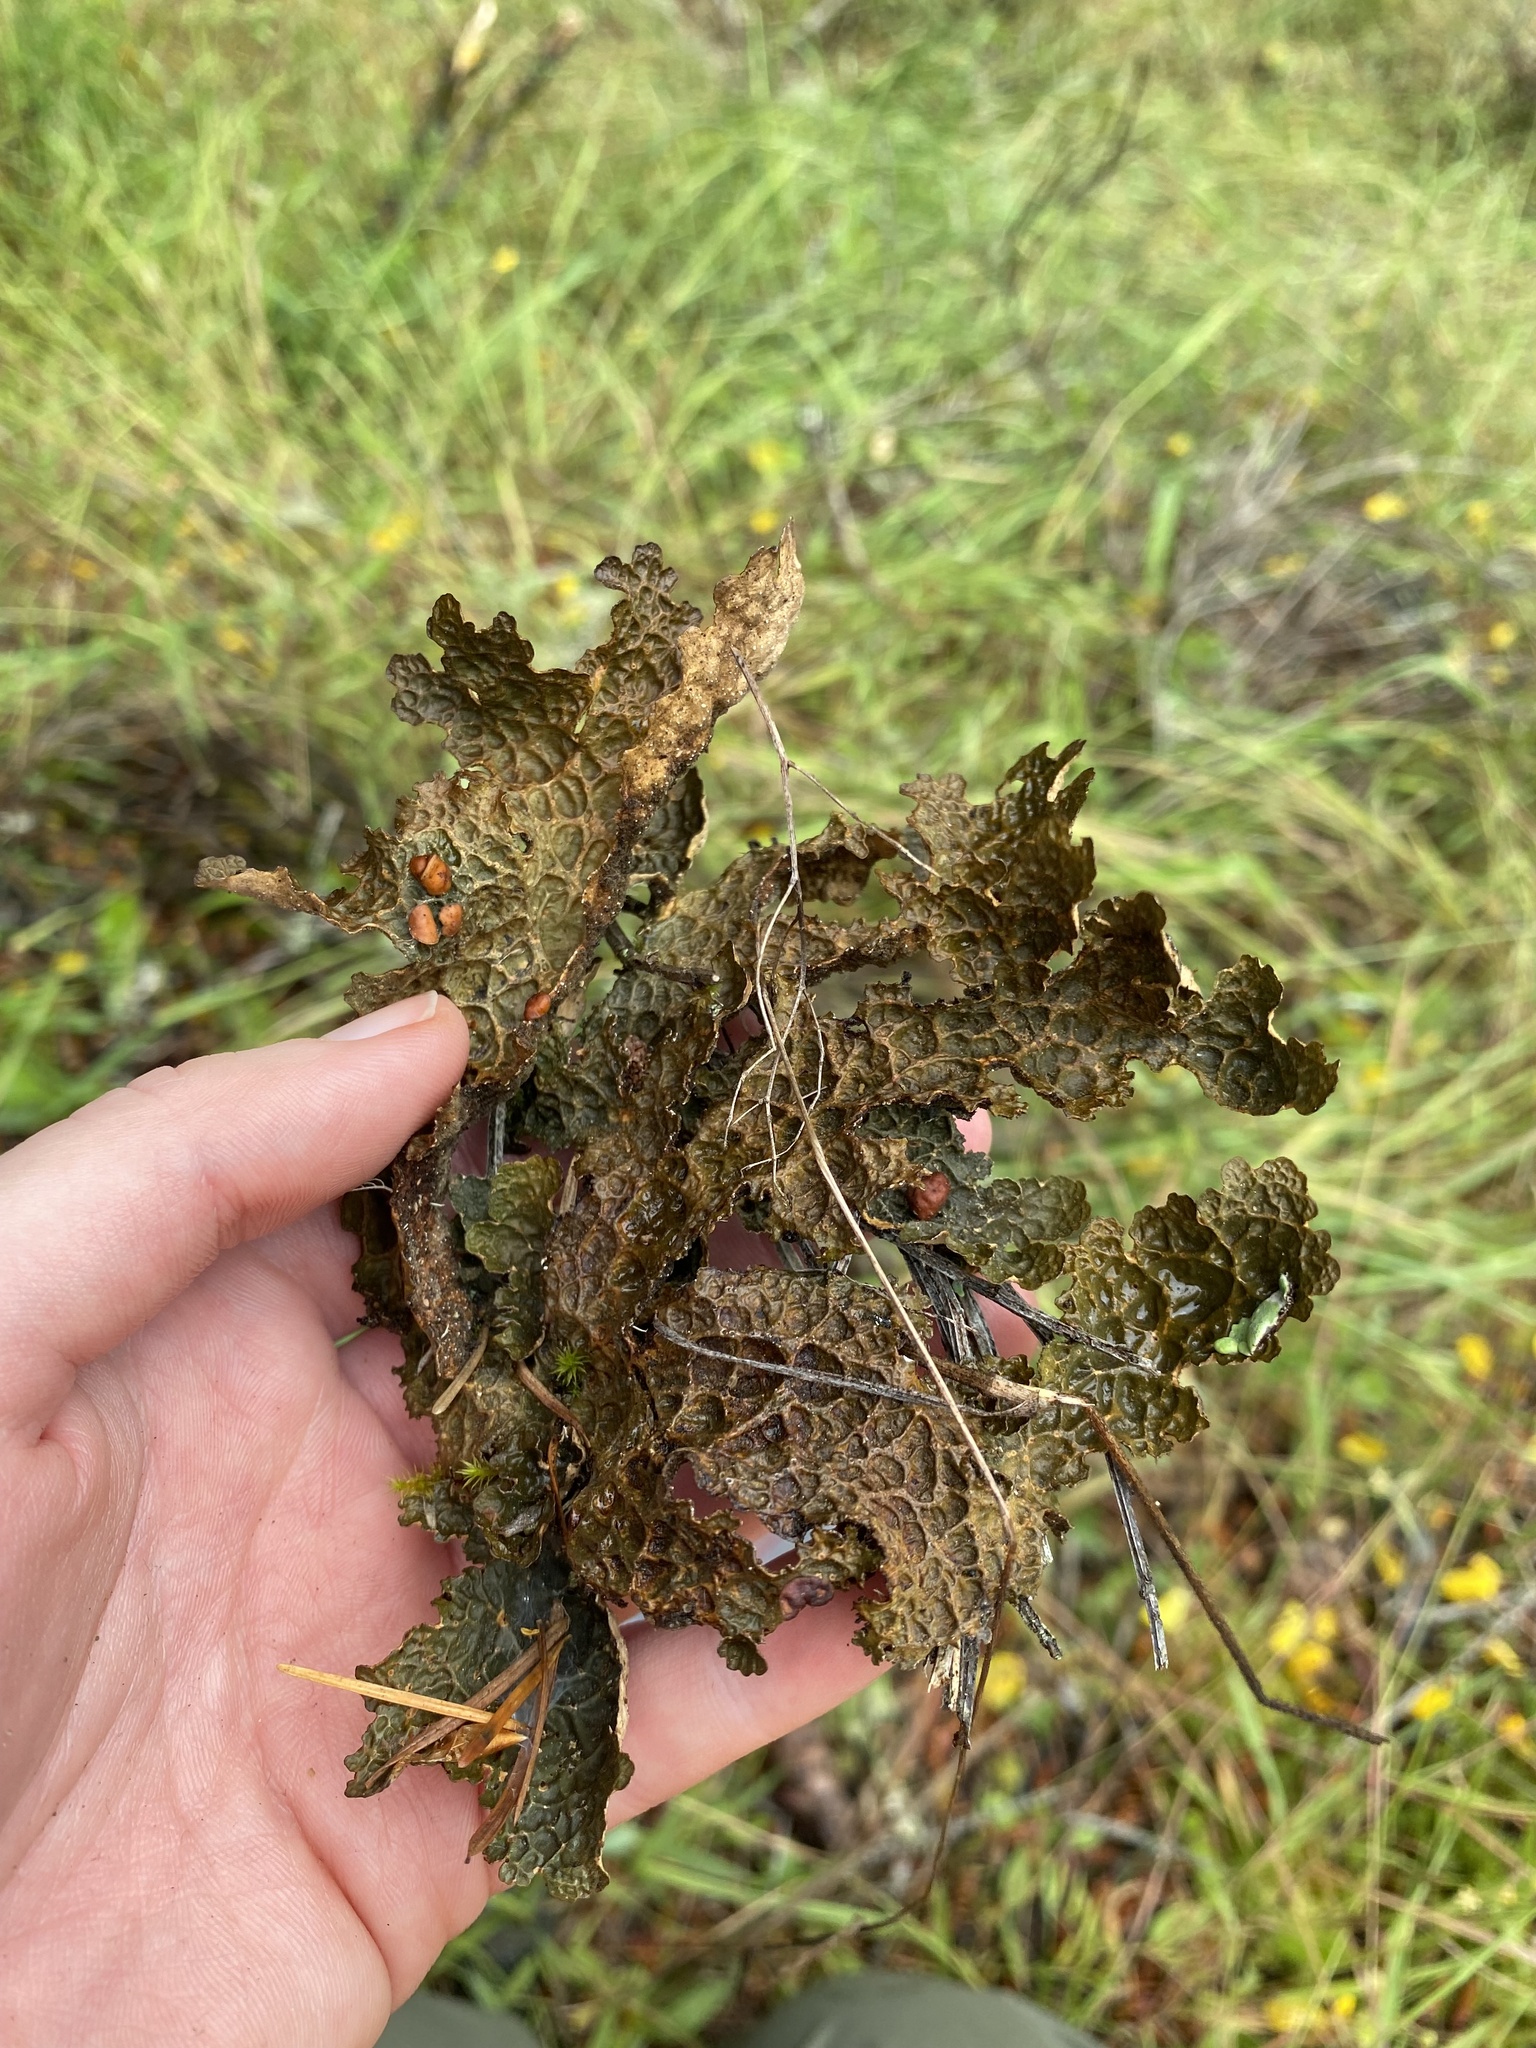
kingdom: Fungi
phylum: Ascomycota
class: Lecanoromycetes
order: Peltigerales
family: Lobariaceae
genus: Lobaria
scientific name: Lobaria anthraspis
